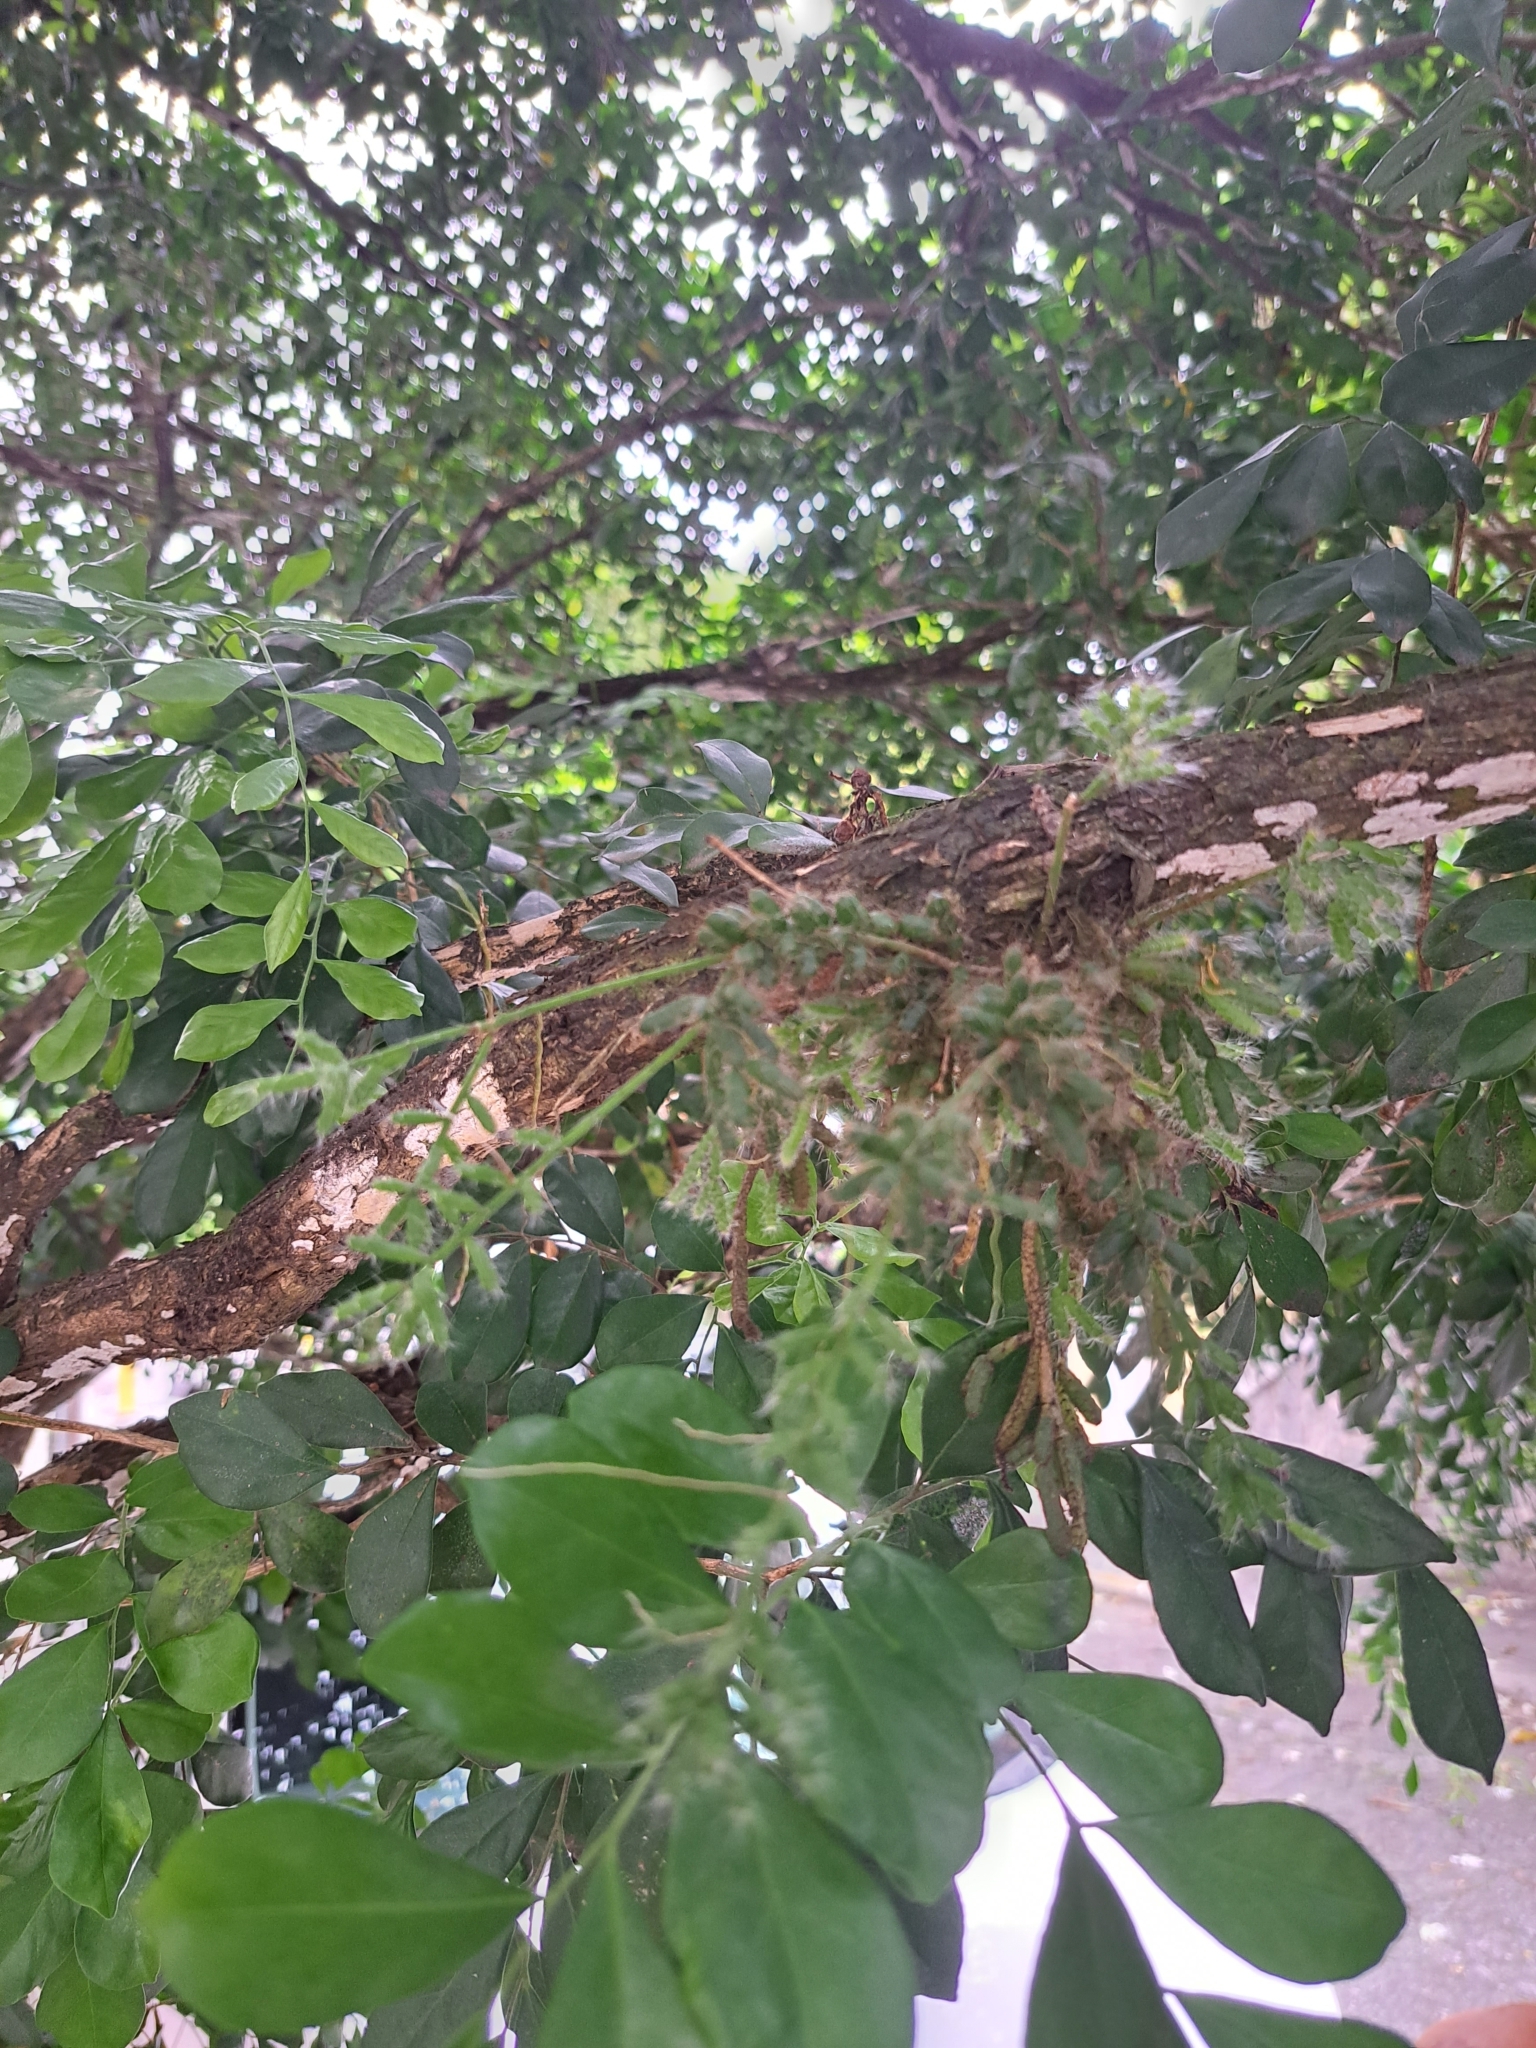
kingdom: Plantae
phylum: Tracheophyta
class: Magnoliopsida
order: Caryophyllales
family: Cactaceae
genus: Rhipsalis
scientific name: Rhipsalis mesembryanthemoides
